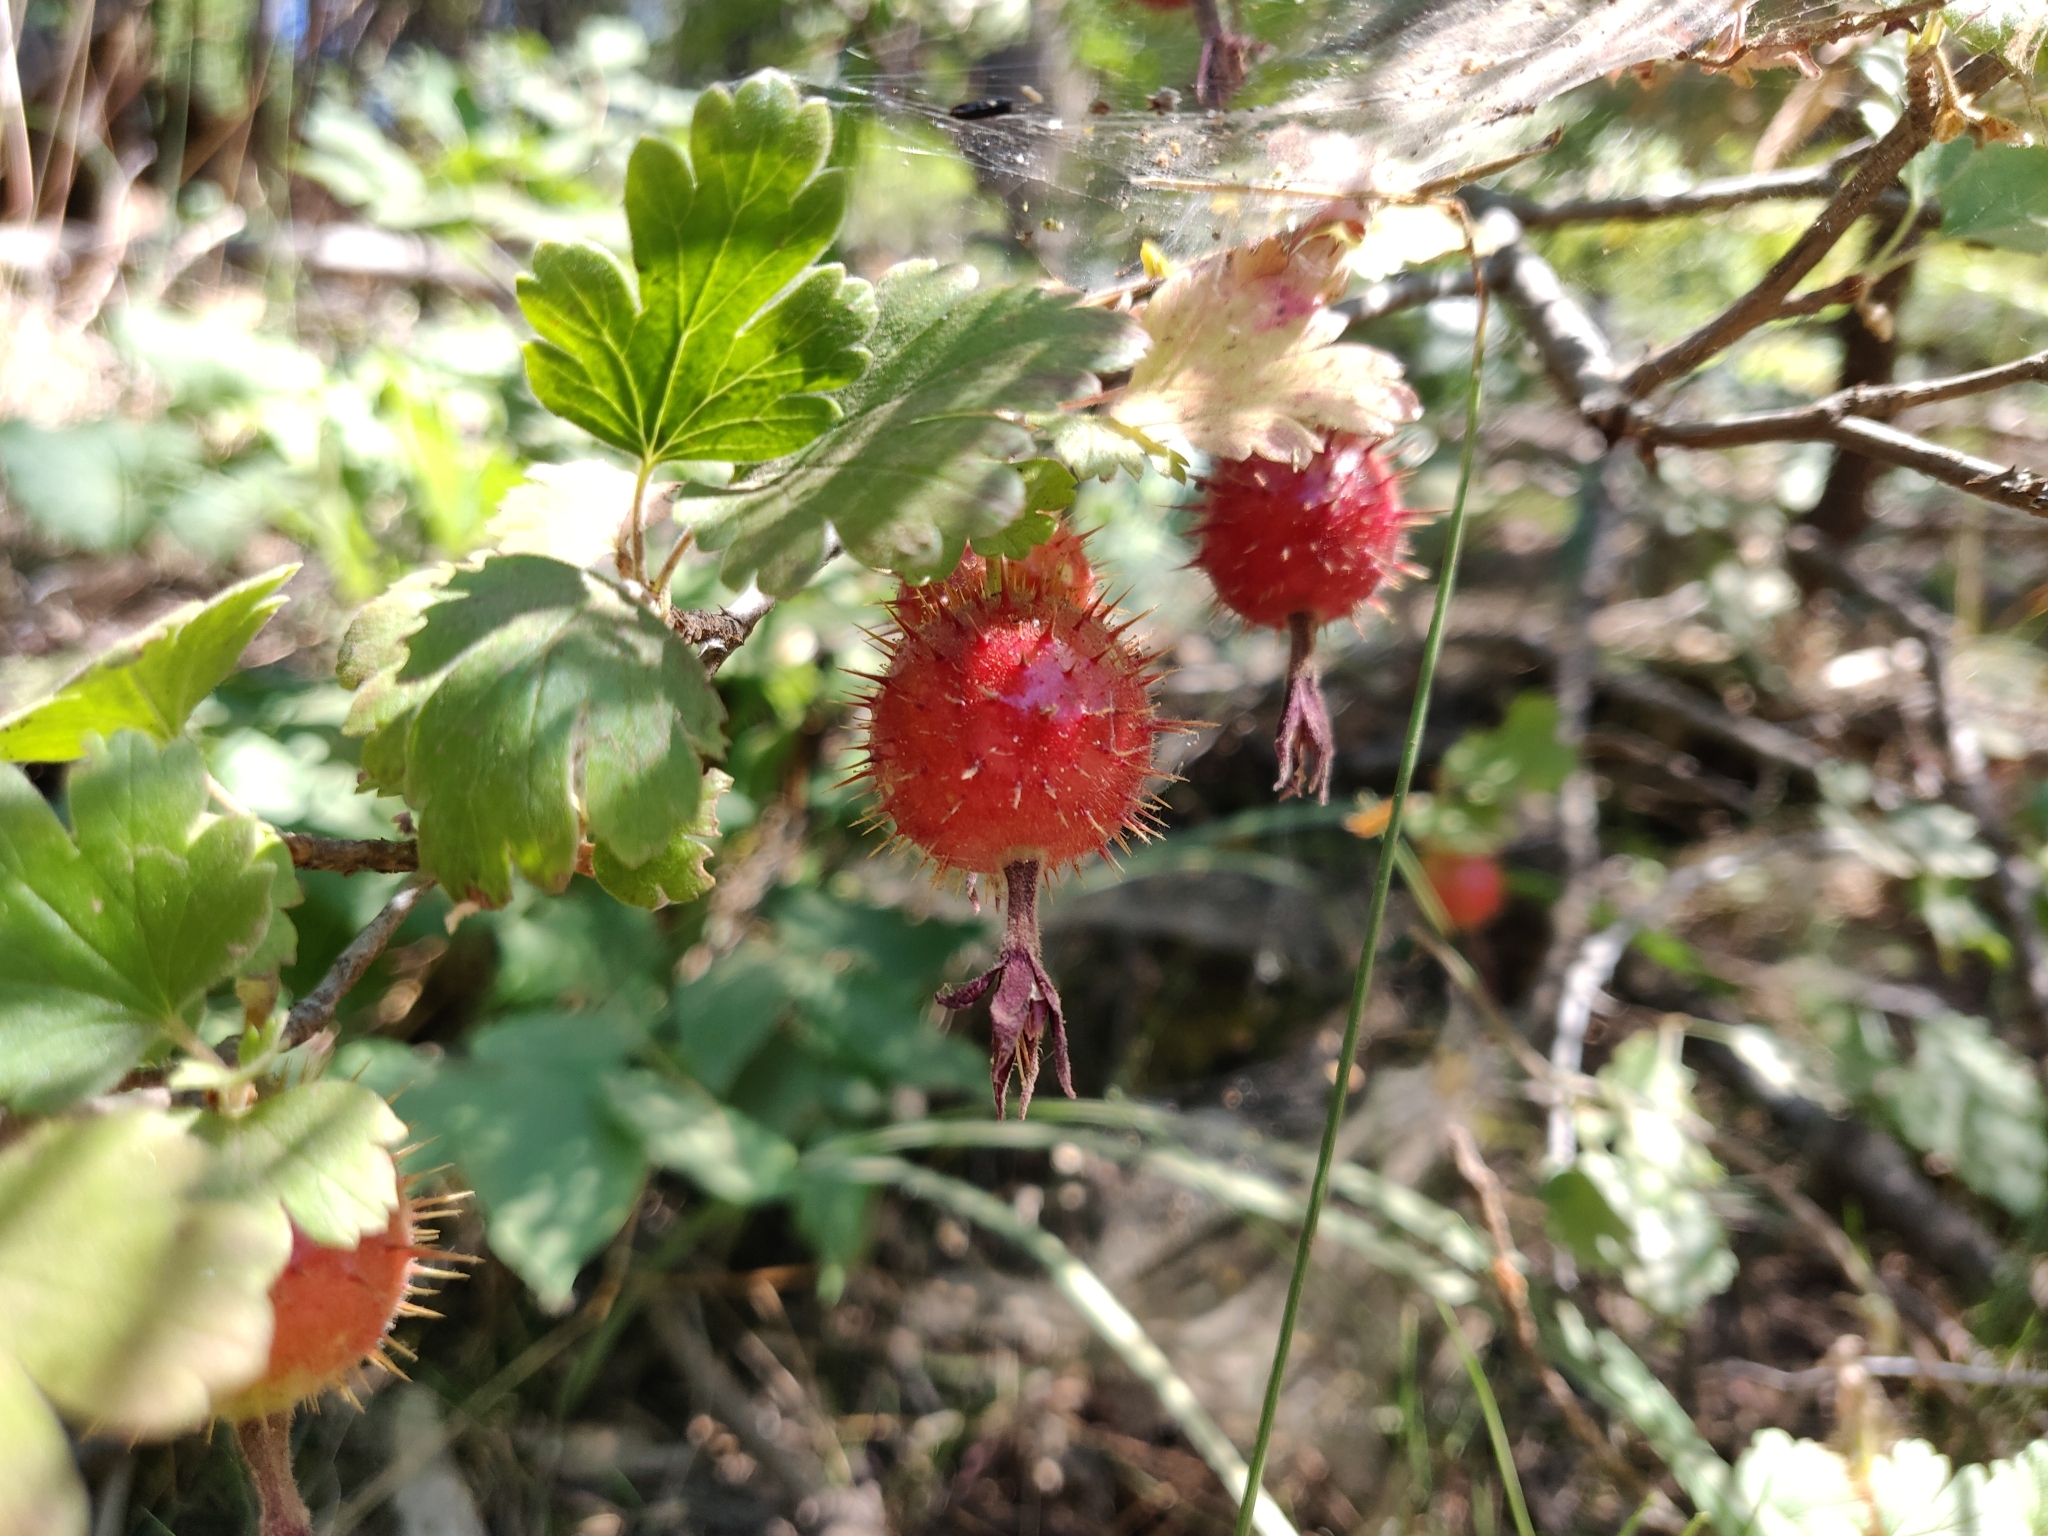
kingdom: Plantae
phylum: Tracheophyta
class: Magnoliopsida
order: Saxifragales
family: Grossulariaceae
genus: Ribes
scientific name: Ribes roezlii
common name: Sierra gooseberry
